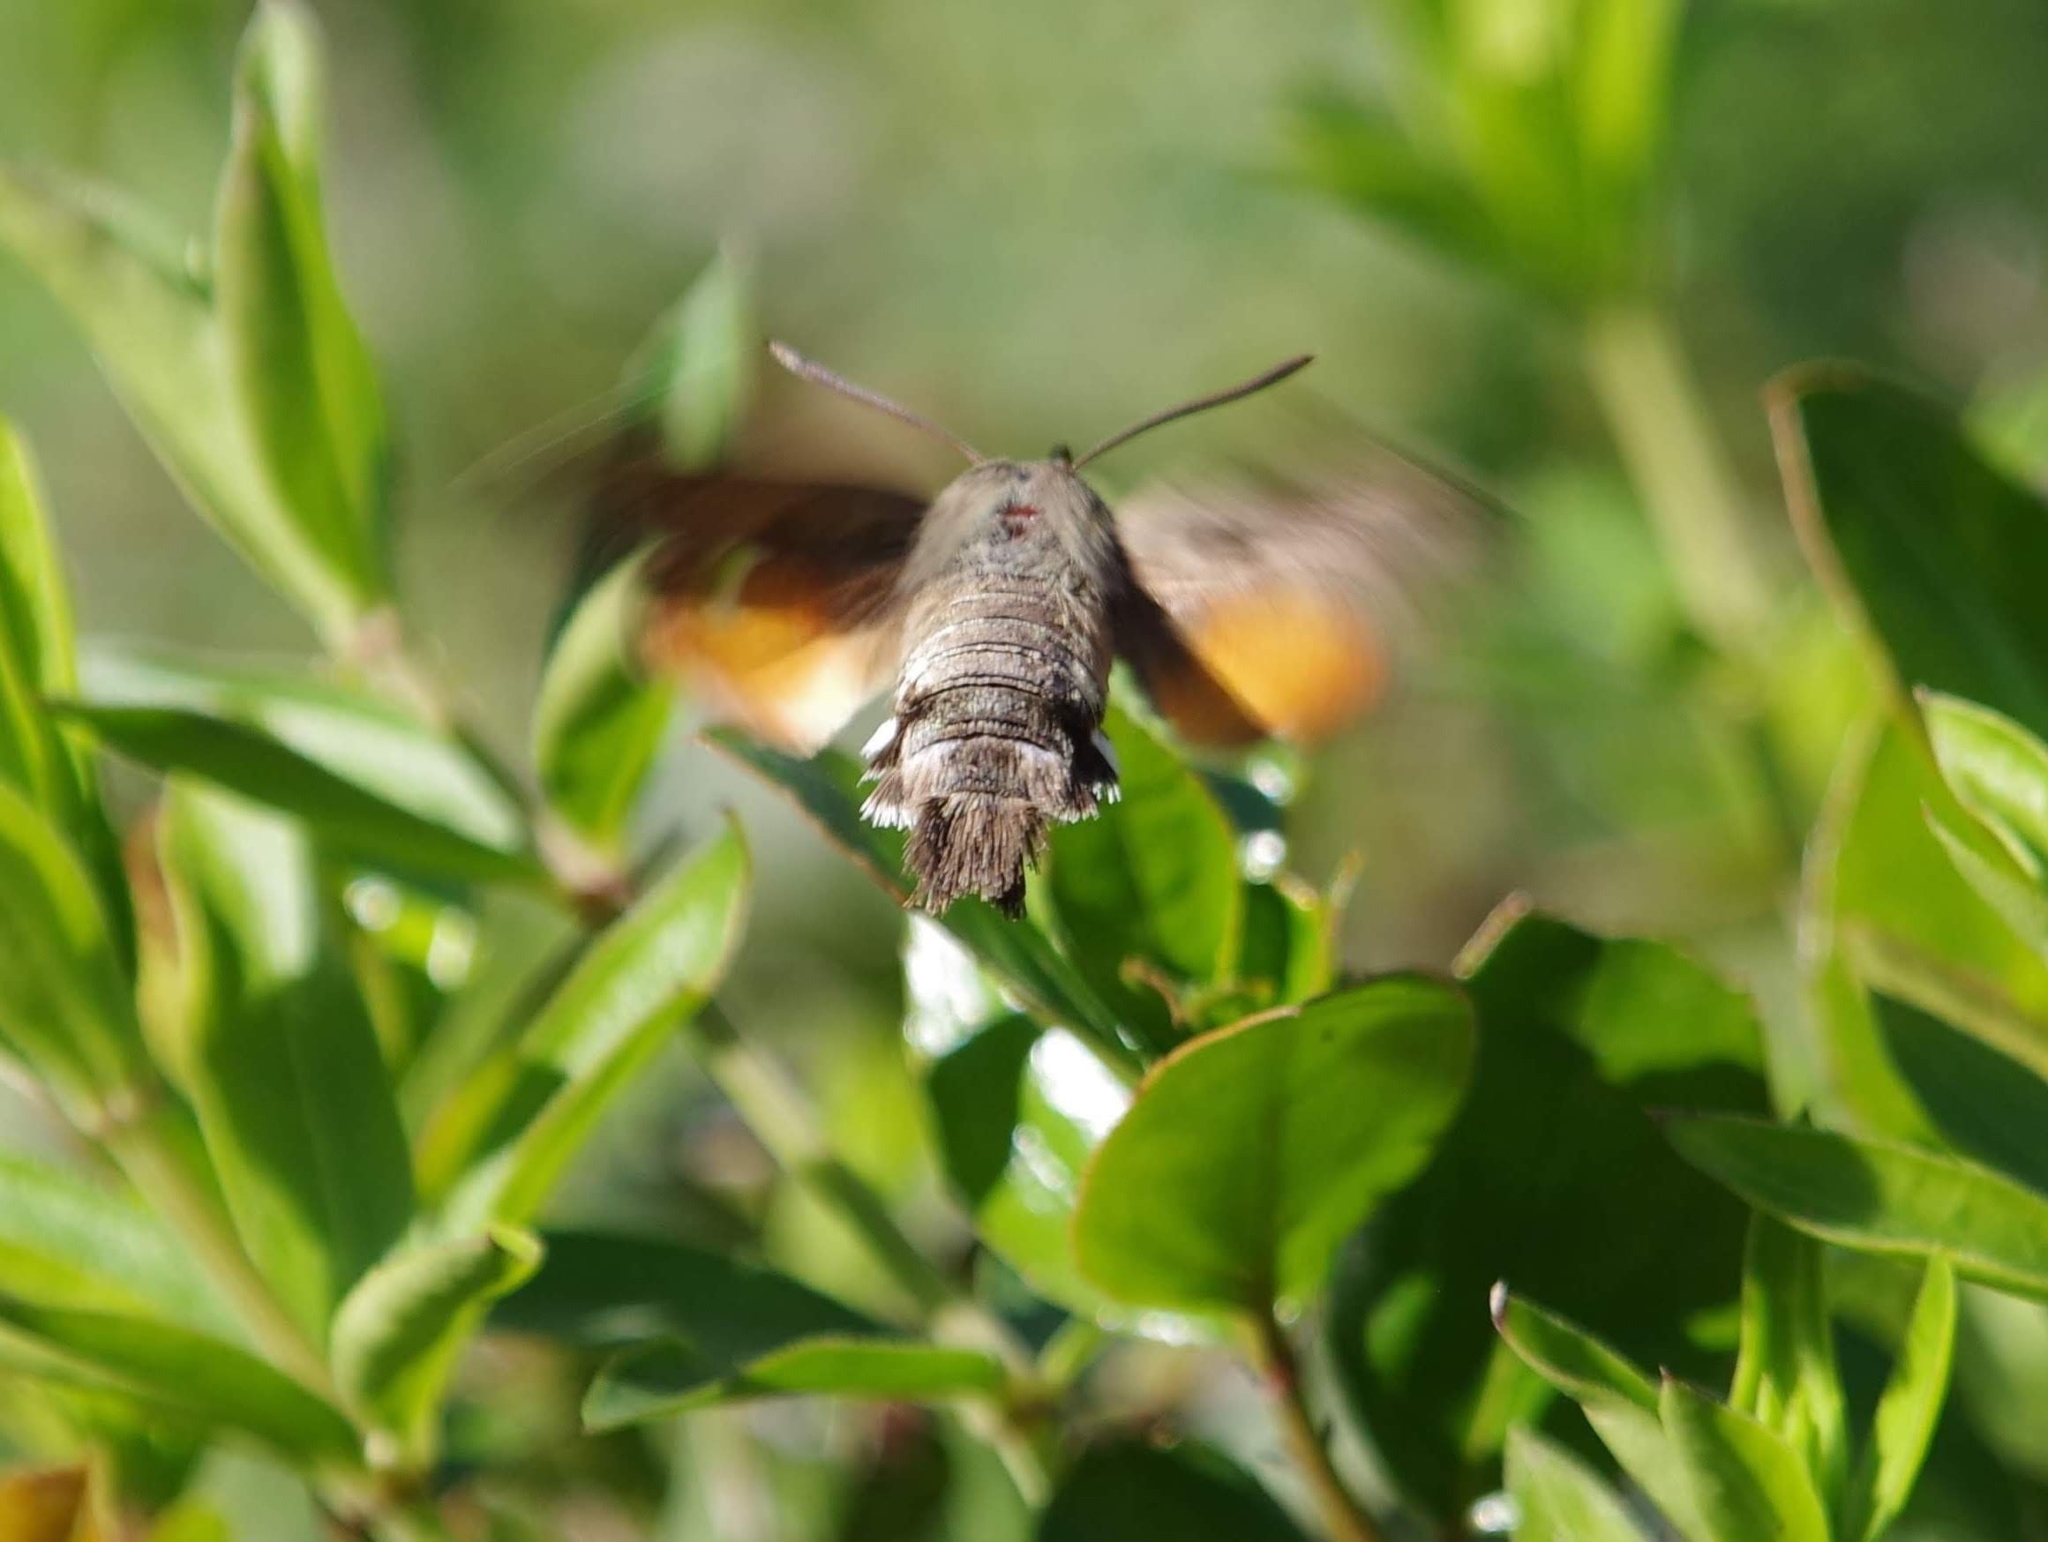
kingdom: Animalia
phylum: Arthropoda
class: Insecta
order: Lepidoptera
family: Sphingidae
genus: Macroglossum
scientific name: Macroglossum stellatarum
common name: Humming-bird hawk-moth
